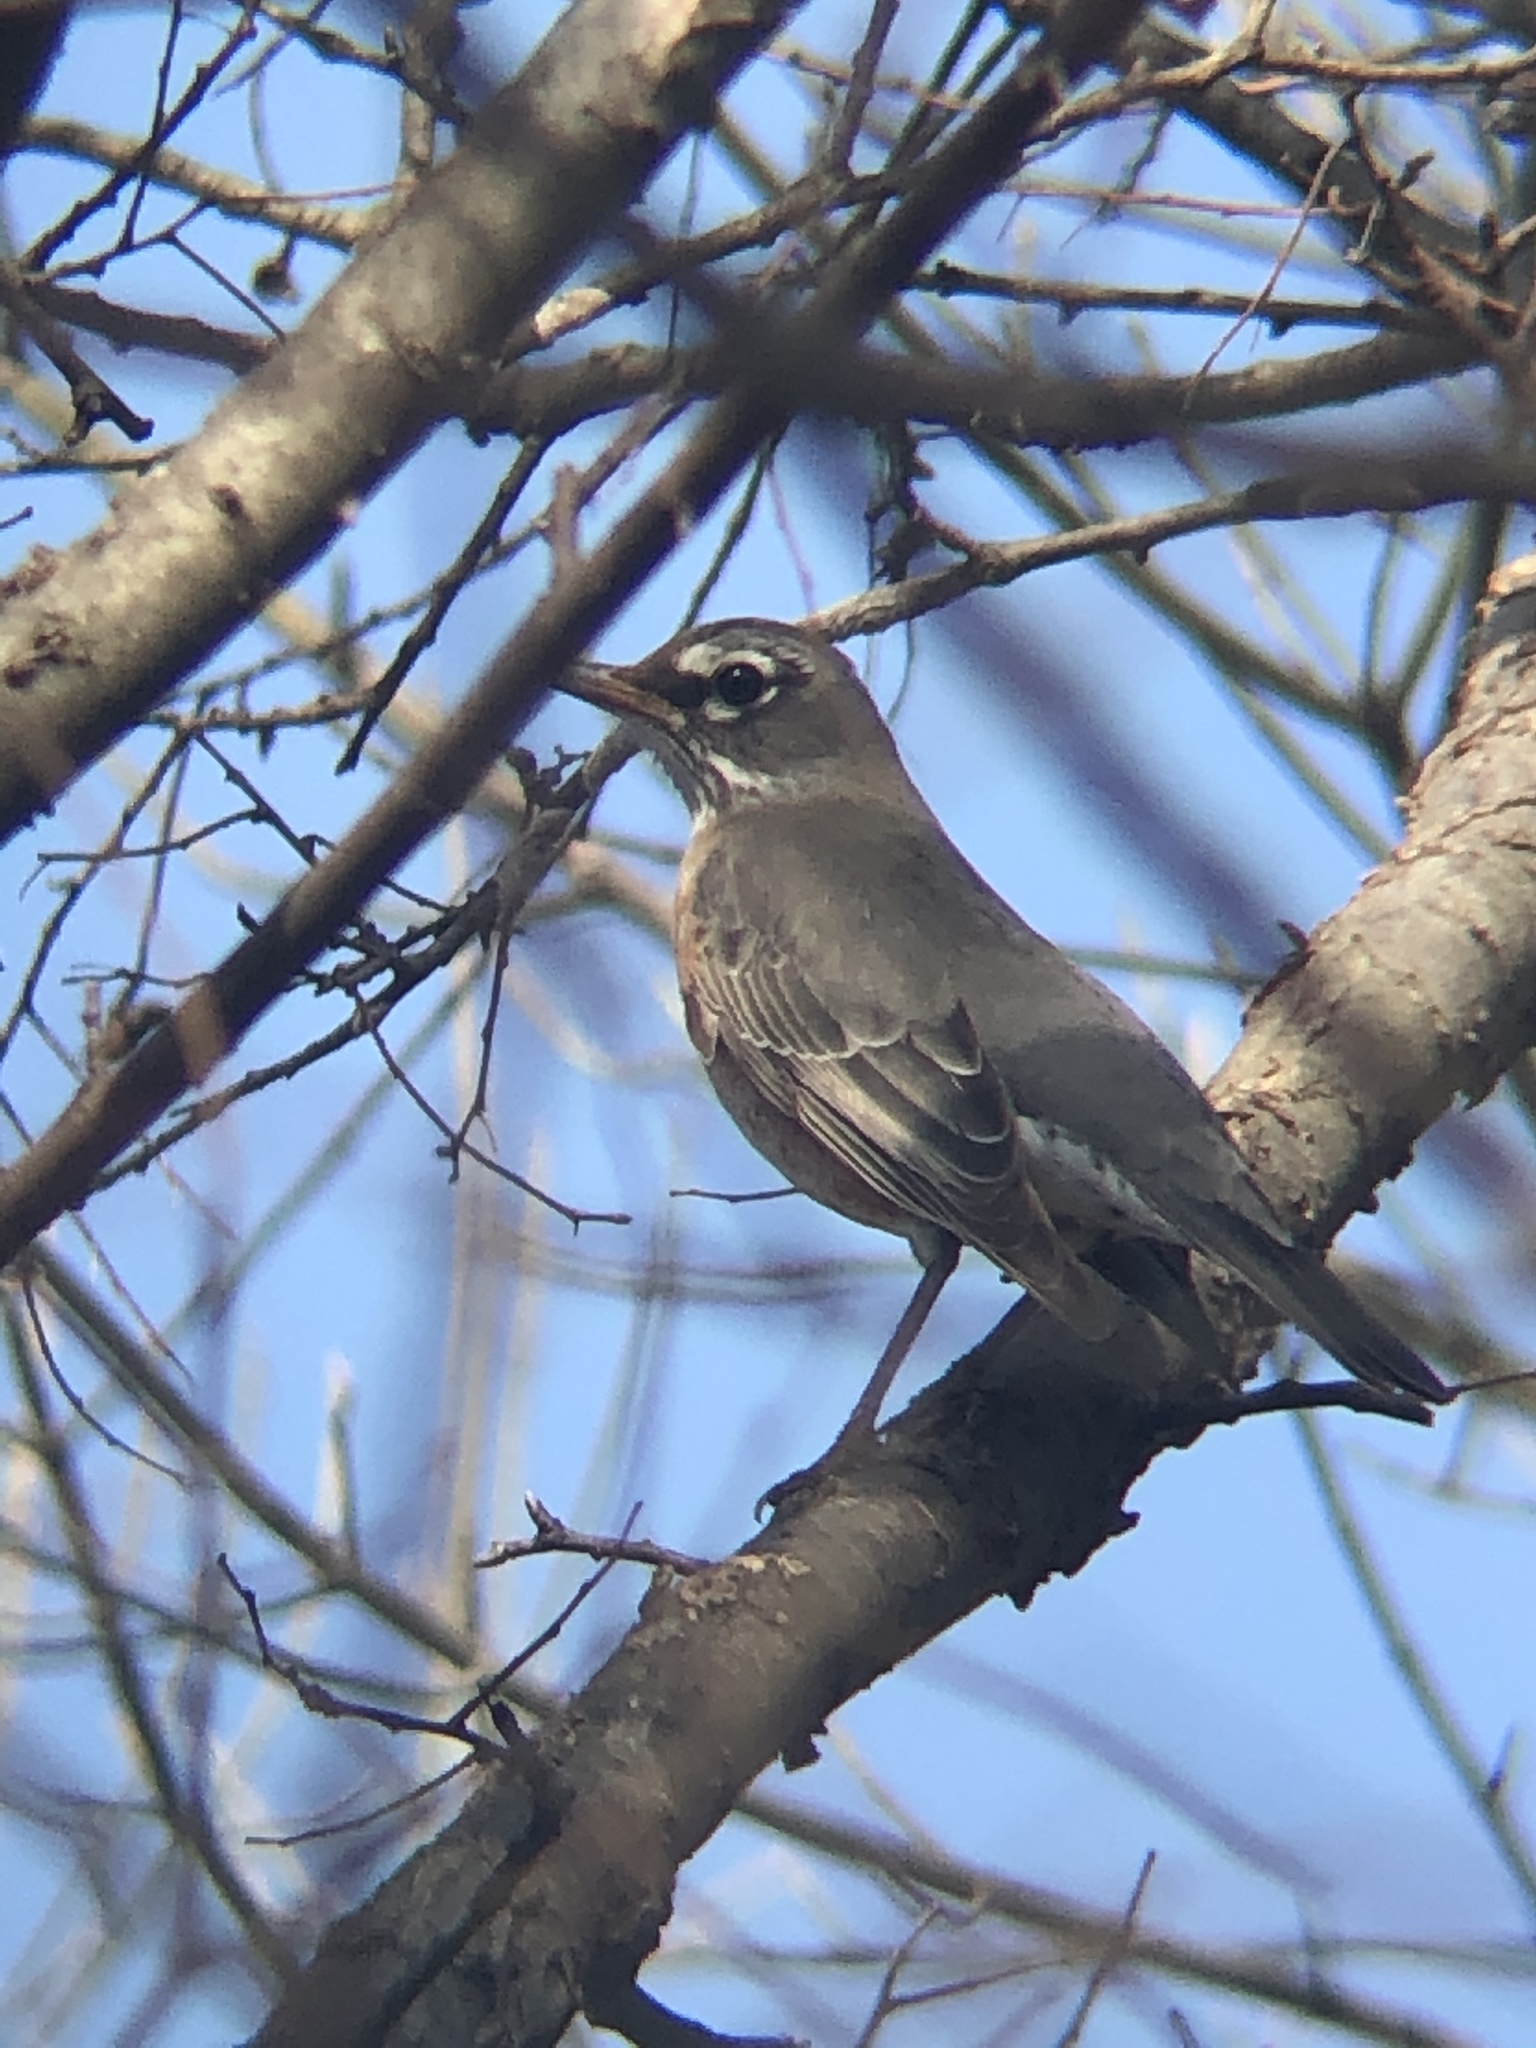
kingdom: Animalia
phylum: Chordata
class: Aves
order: Passeriformes
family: Turdidae
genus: Turdus
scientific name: Turdus migratorius
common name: American robin
